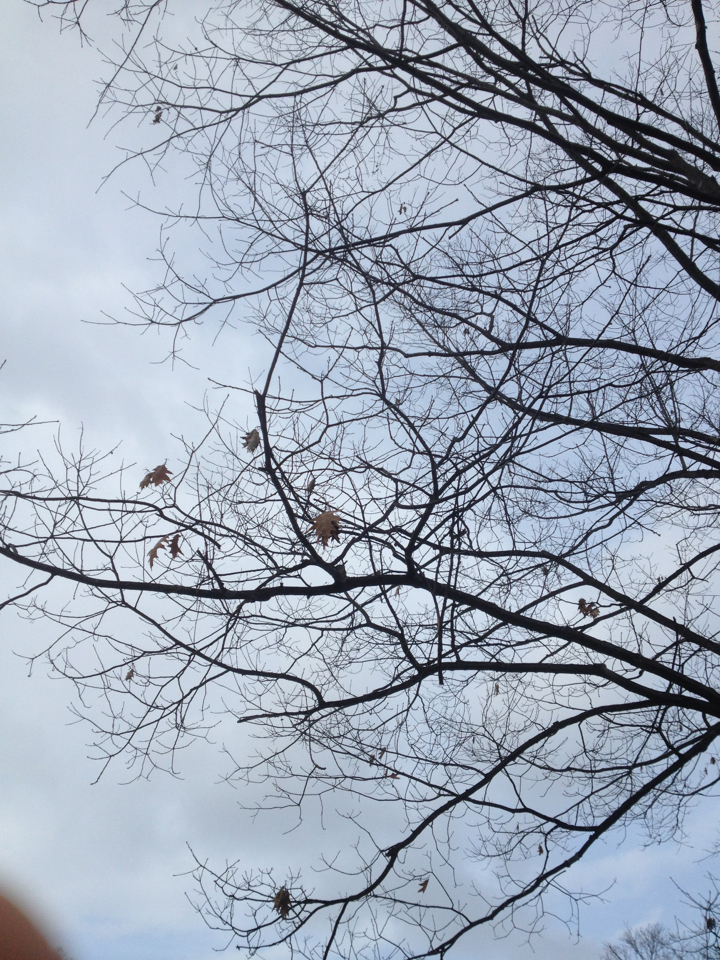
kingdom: Plantae
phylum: Tracheophyta
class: Magnoliopsida
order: Fagales
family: Fagaceae
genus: Quercus
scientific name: Quercus rubra
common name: Red oak
